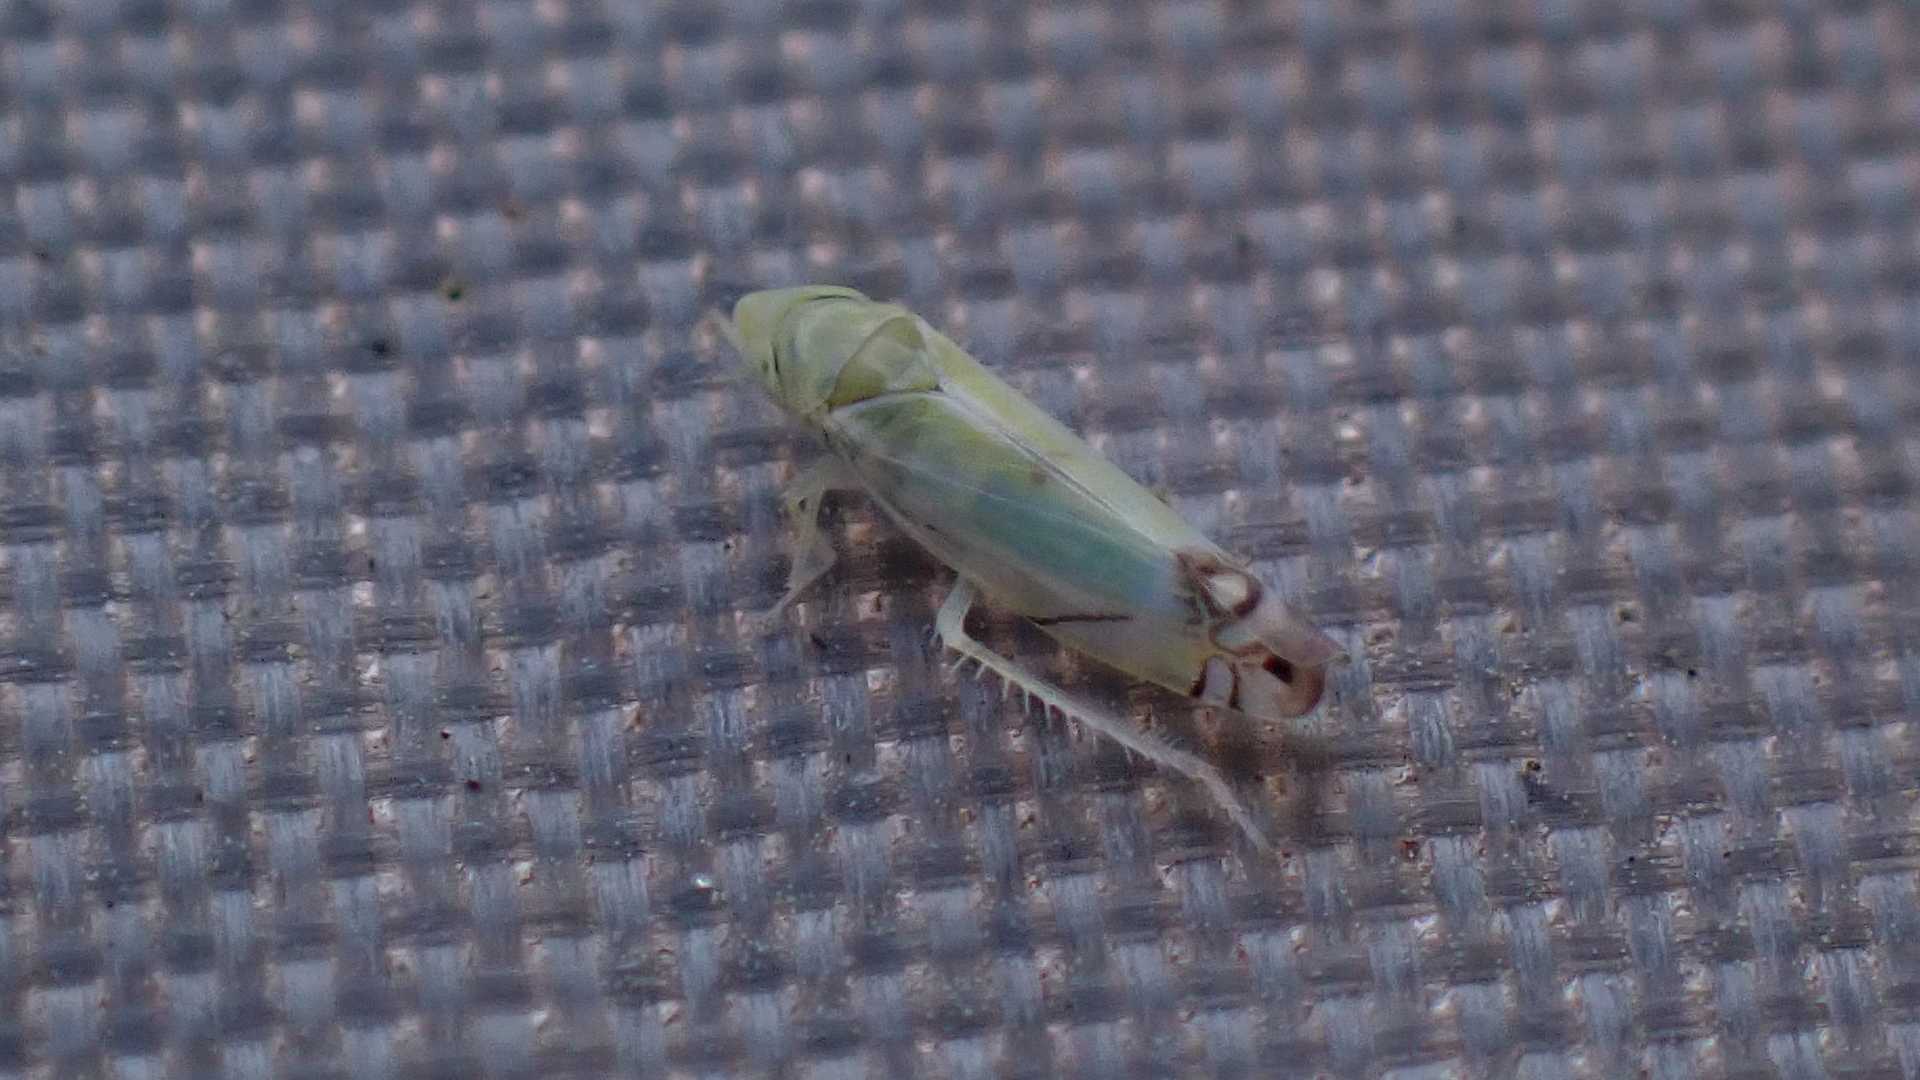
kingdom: Animalia
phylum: Arthropoda
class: Insecta
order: Hemiptera
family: Cicadellidae
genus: Zyginella
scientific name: Zyginella pulchra
